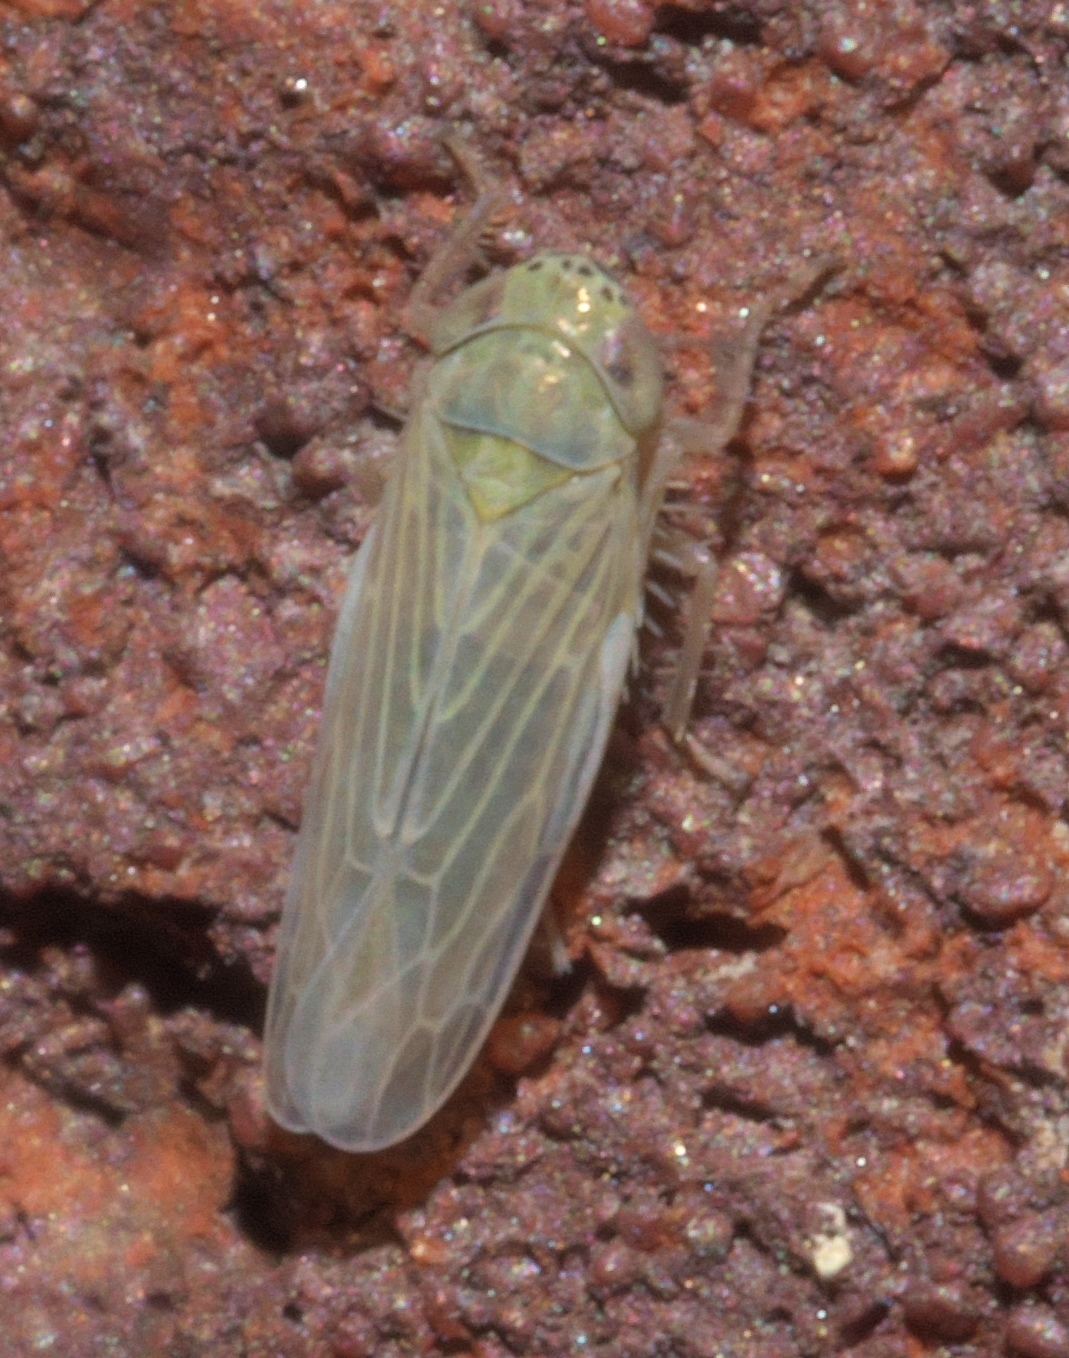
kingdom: Animalia
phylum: Arthropoda
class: Insecta
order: Hemiptera
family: Cicadellidae
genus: Graminella
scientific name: Graminella nigrifrons
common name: Blackfaced leafhopper
